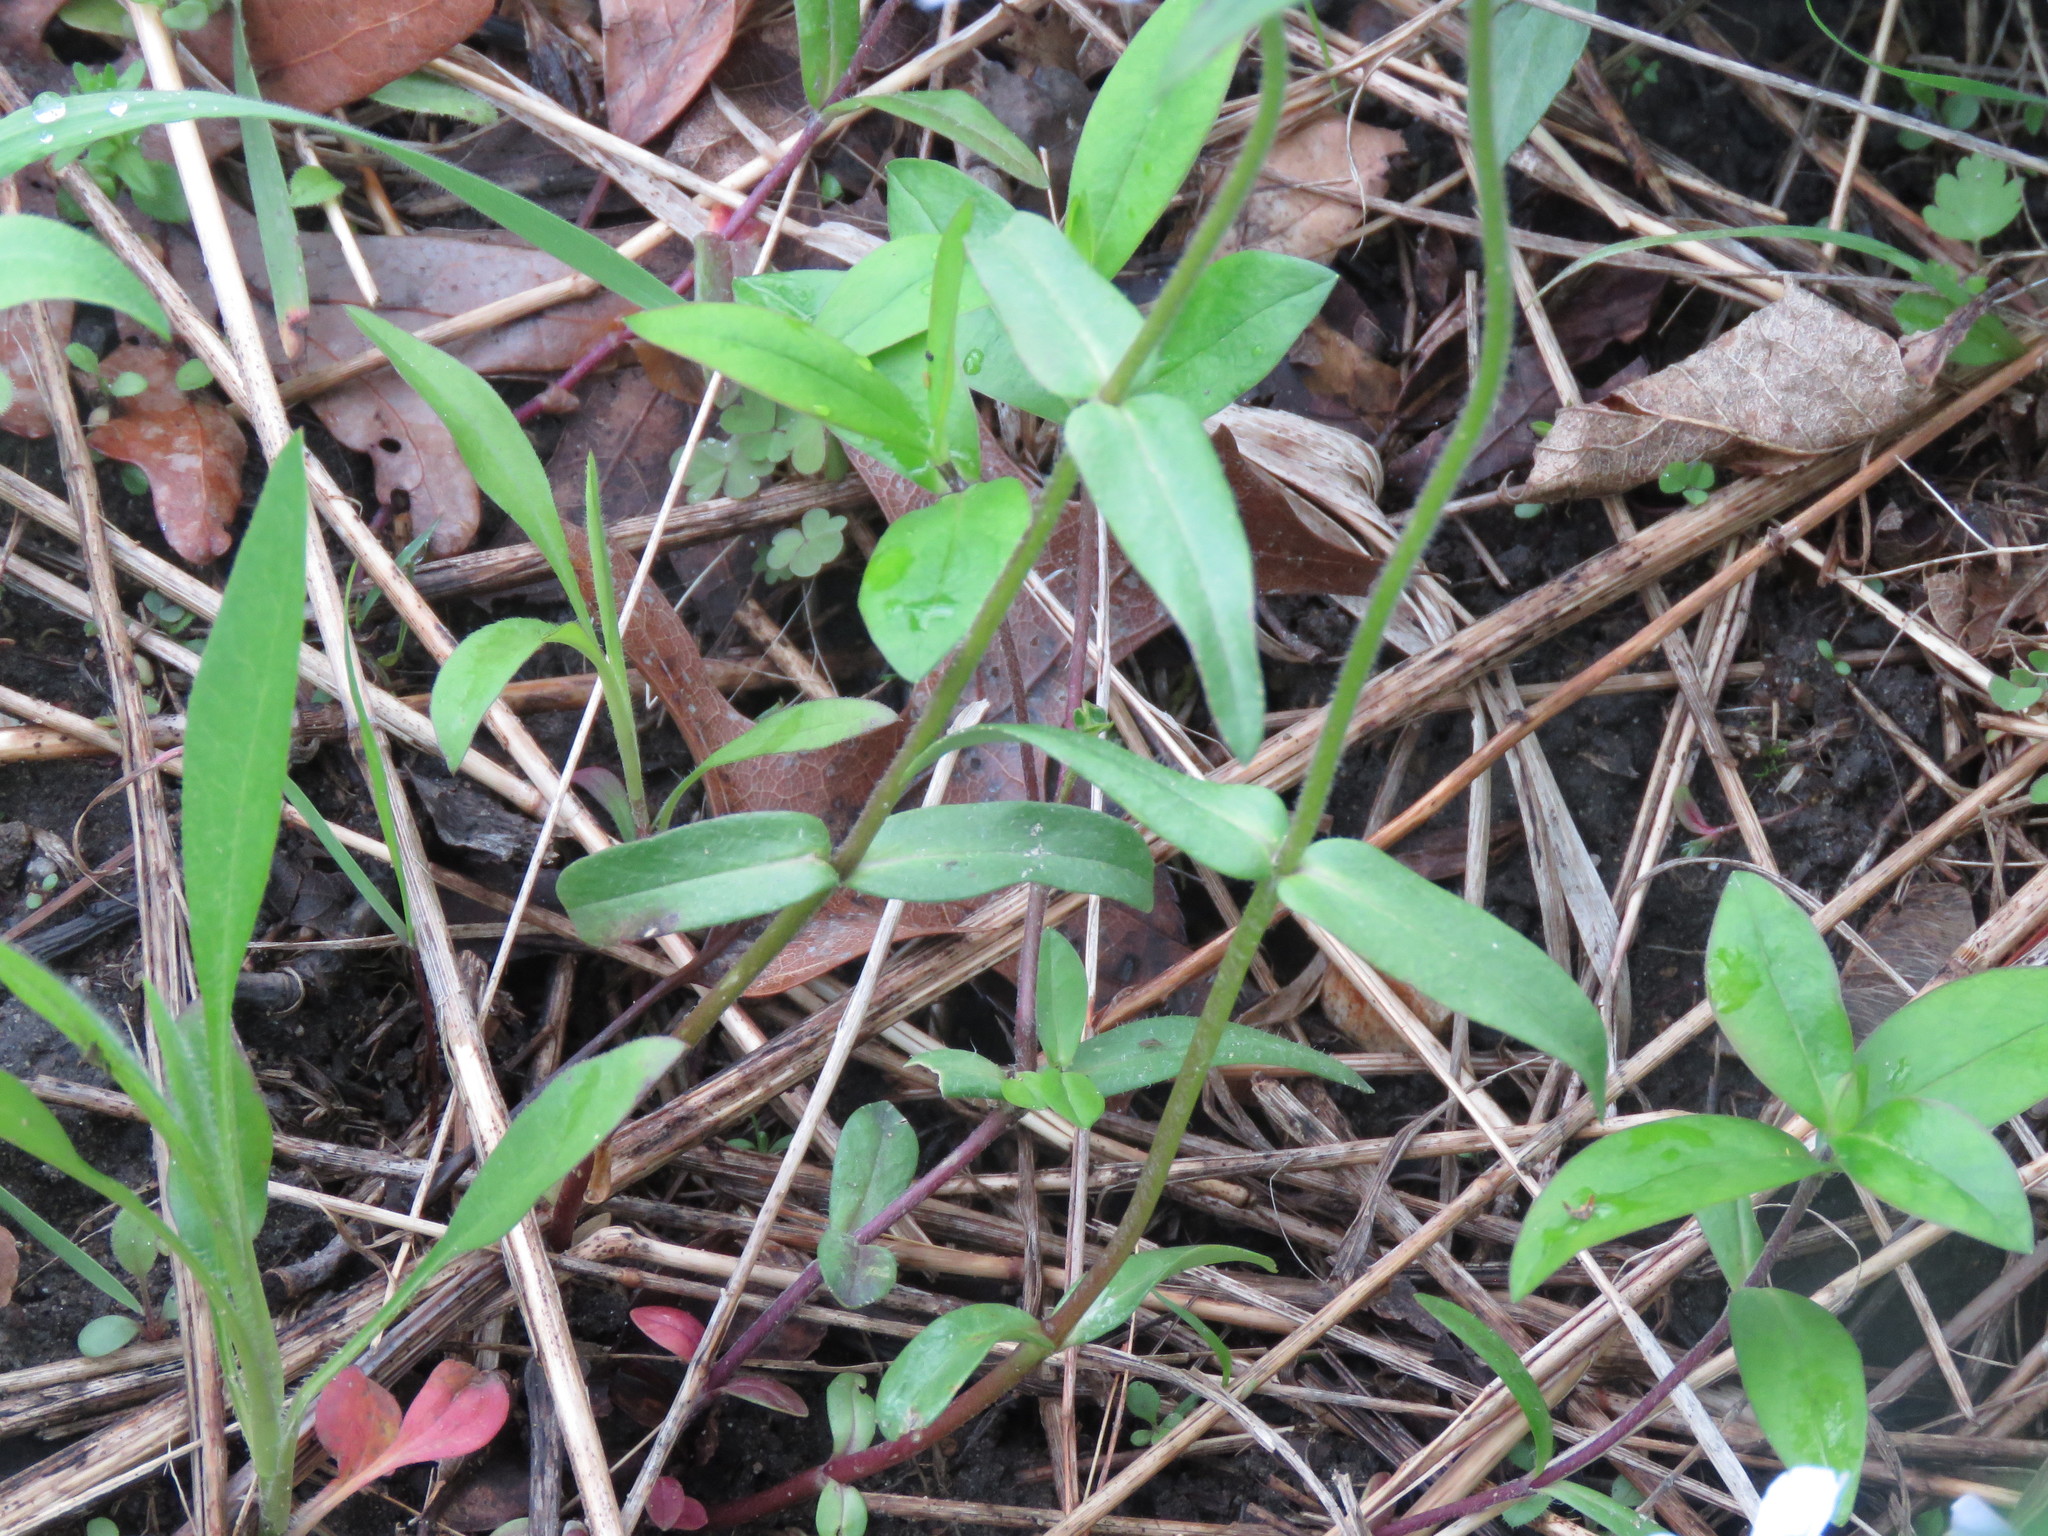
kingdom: Plantae
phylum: Tracheophyta
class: Magnoliopsida
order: Ericales
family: Polemoniaceae
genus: Phlox
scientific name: Phlox divaricata
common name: Blue phlox
